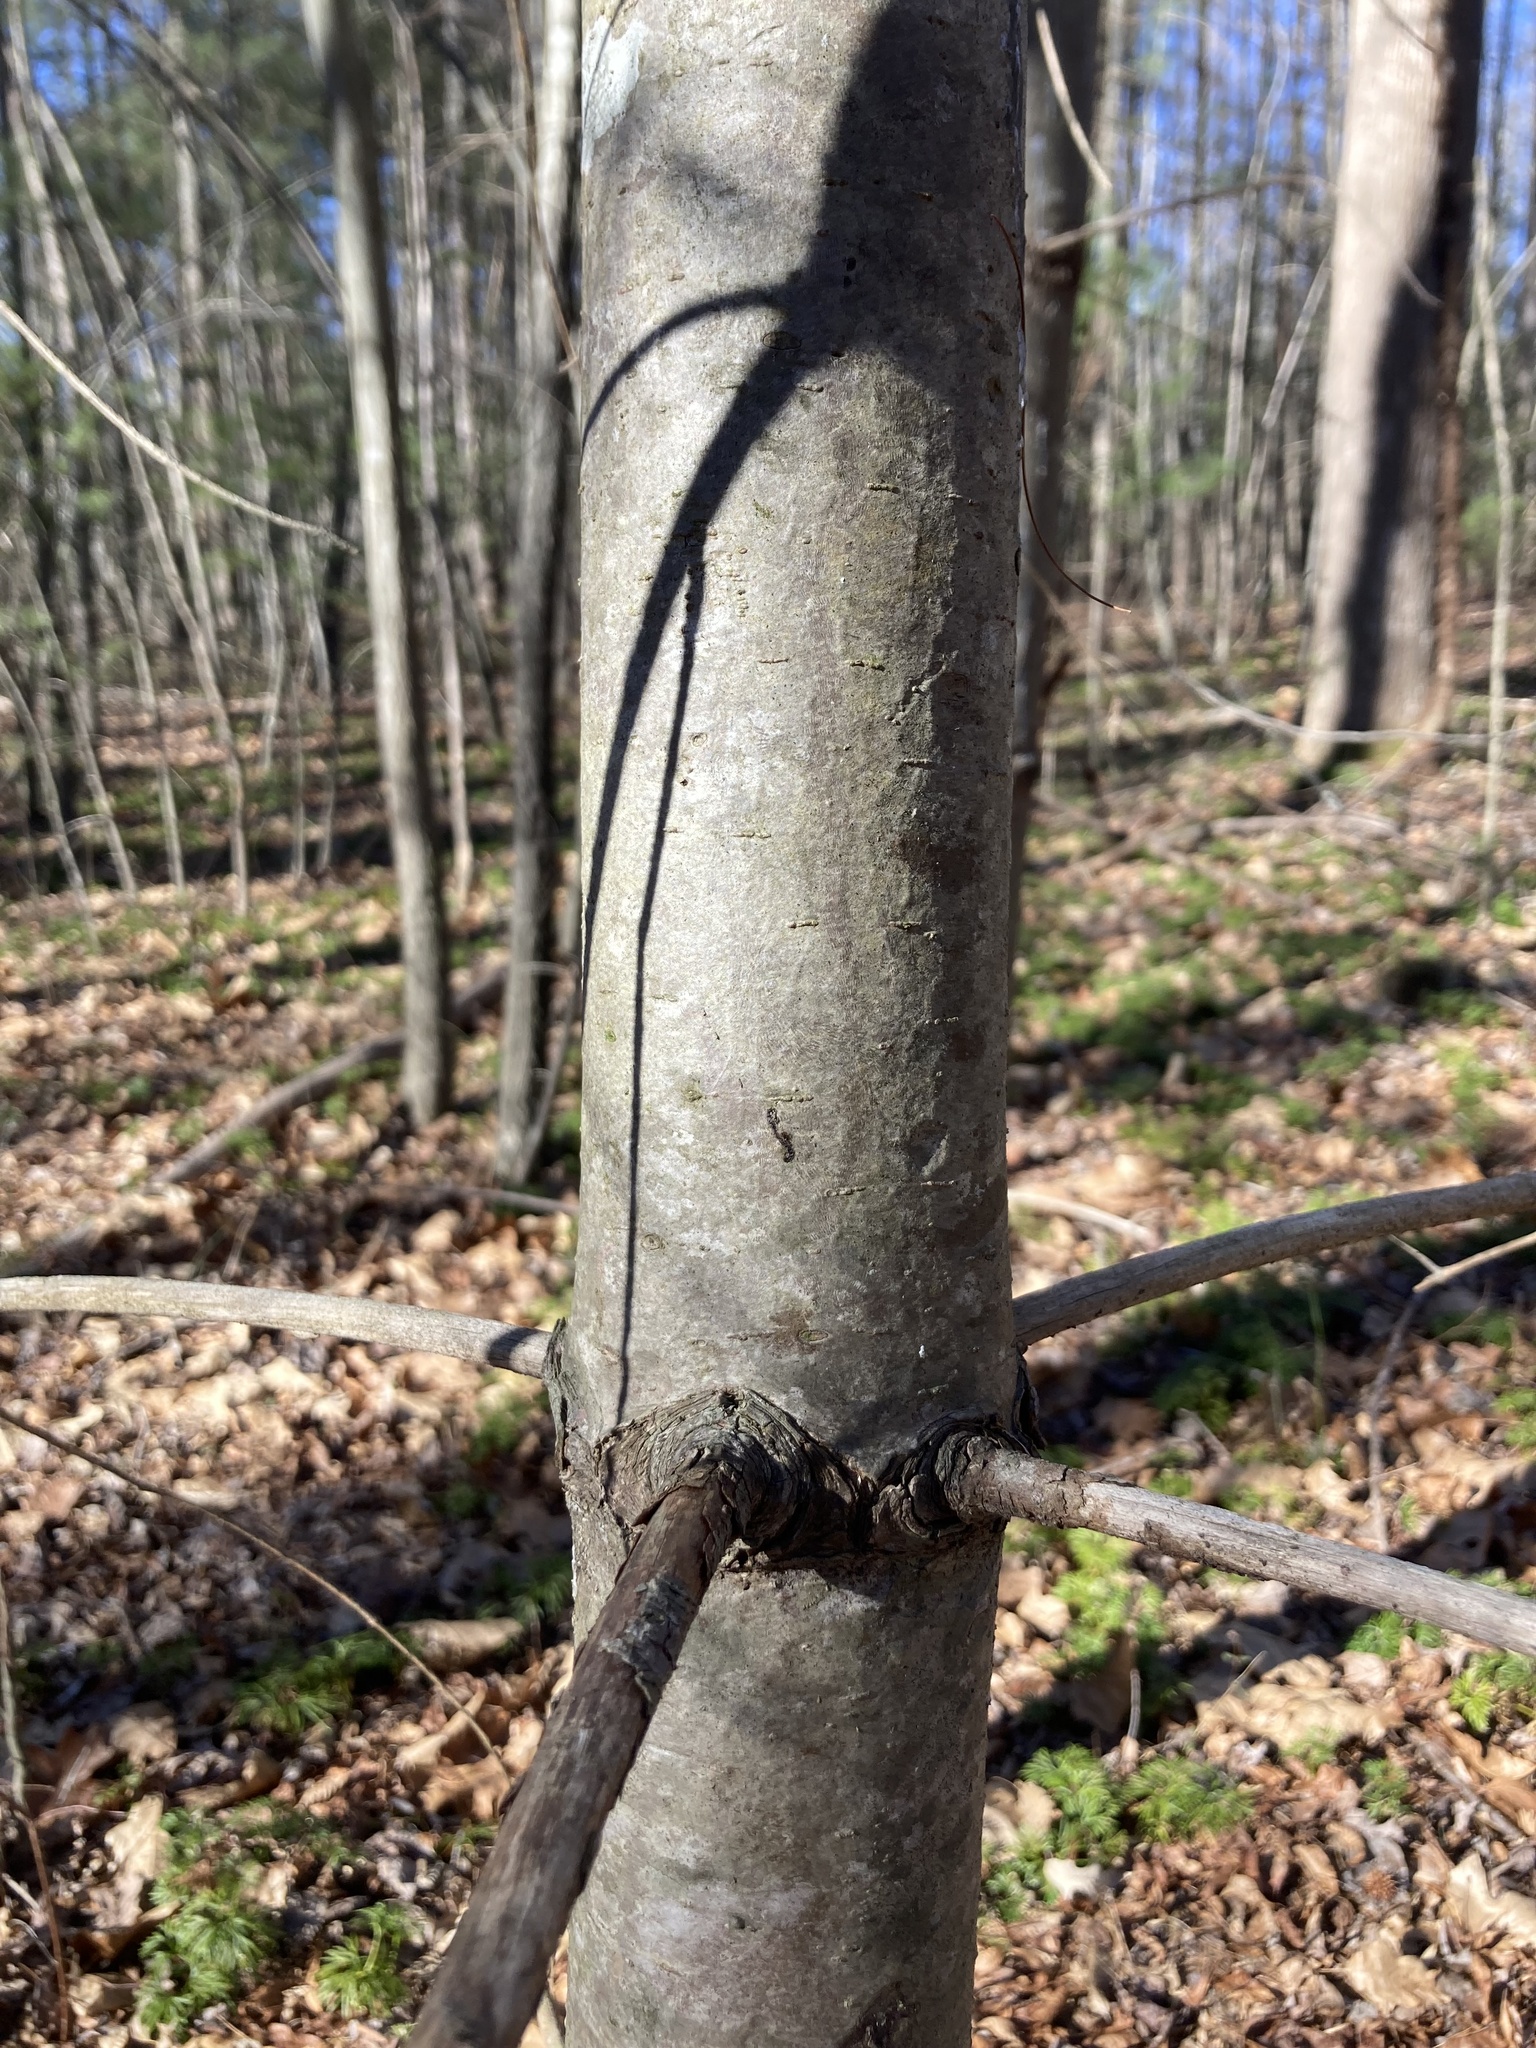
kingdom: Plantae
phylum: Tracheophyta
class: Pinopsida
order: Pinales
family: Pinaceae
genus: Pinus
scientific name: Pinus strobus
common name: Weymouth pine
